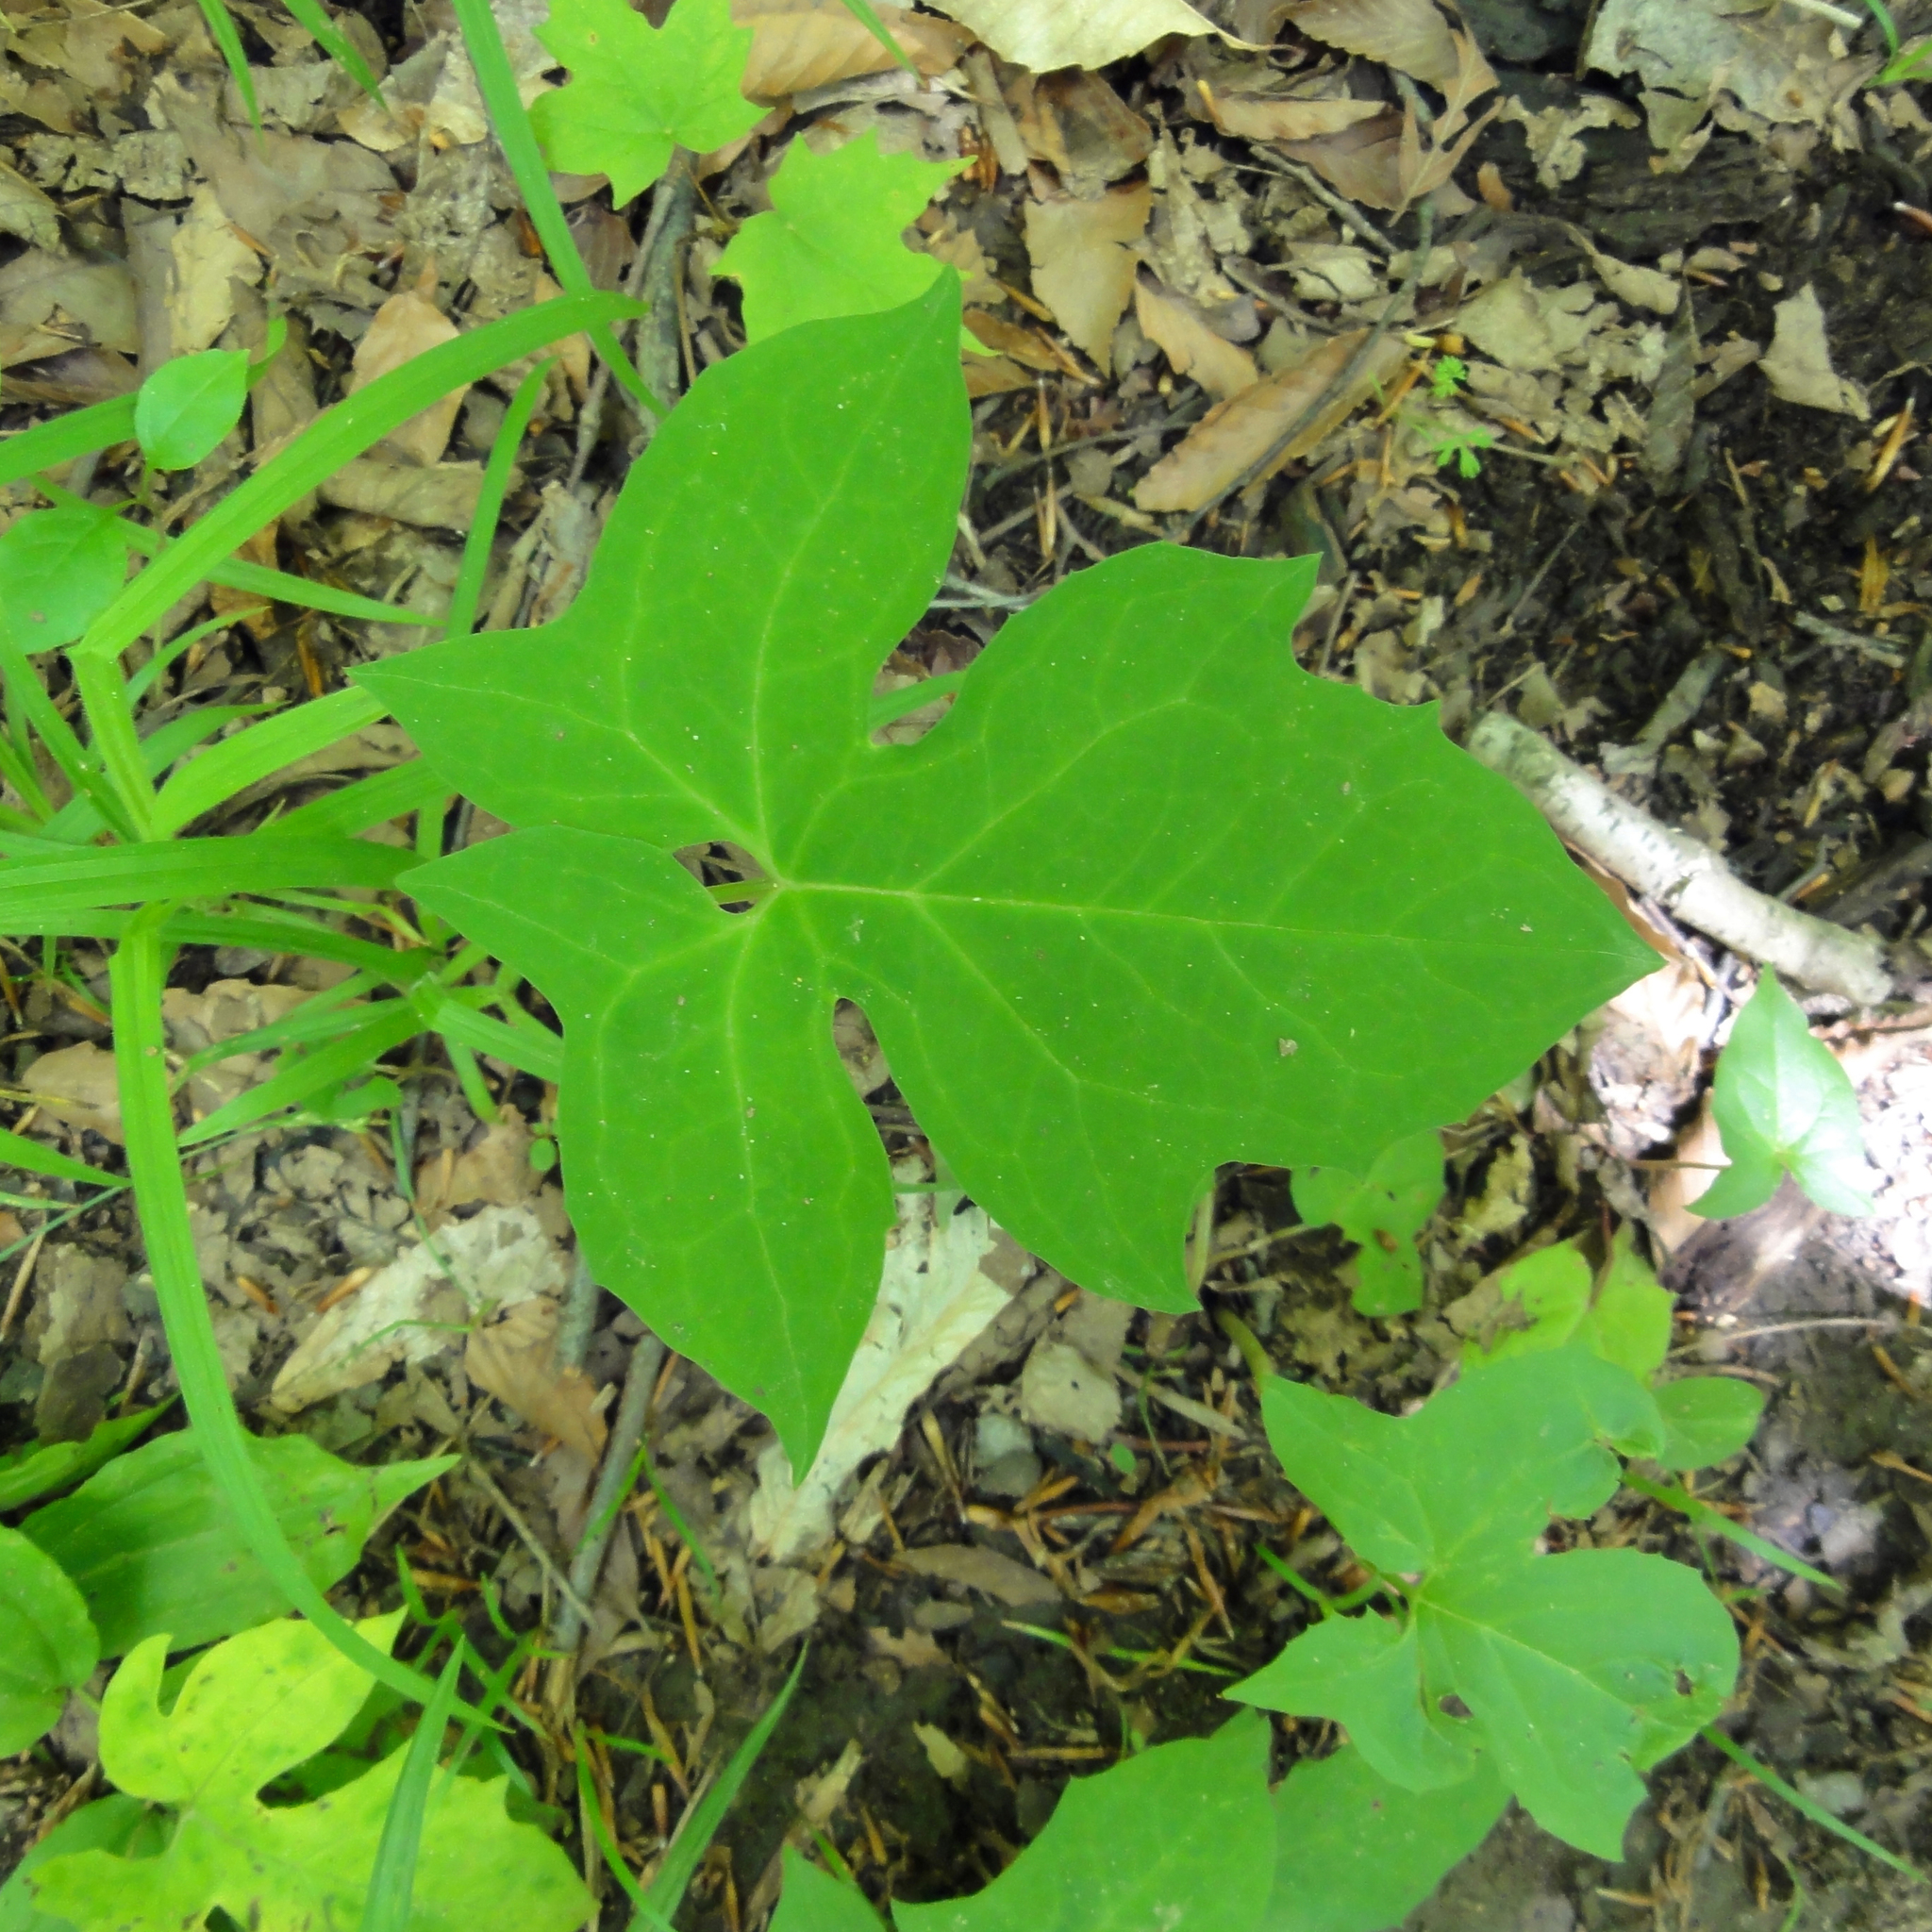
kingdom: Plantae
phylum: Tracheophyta
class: Magnoliopsida
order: Asterales
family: Asteraceae
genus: Nabalus
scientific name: Nabalus
